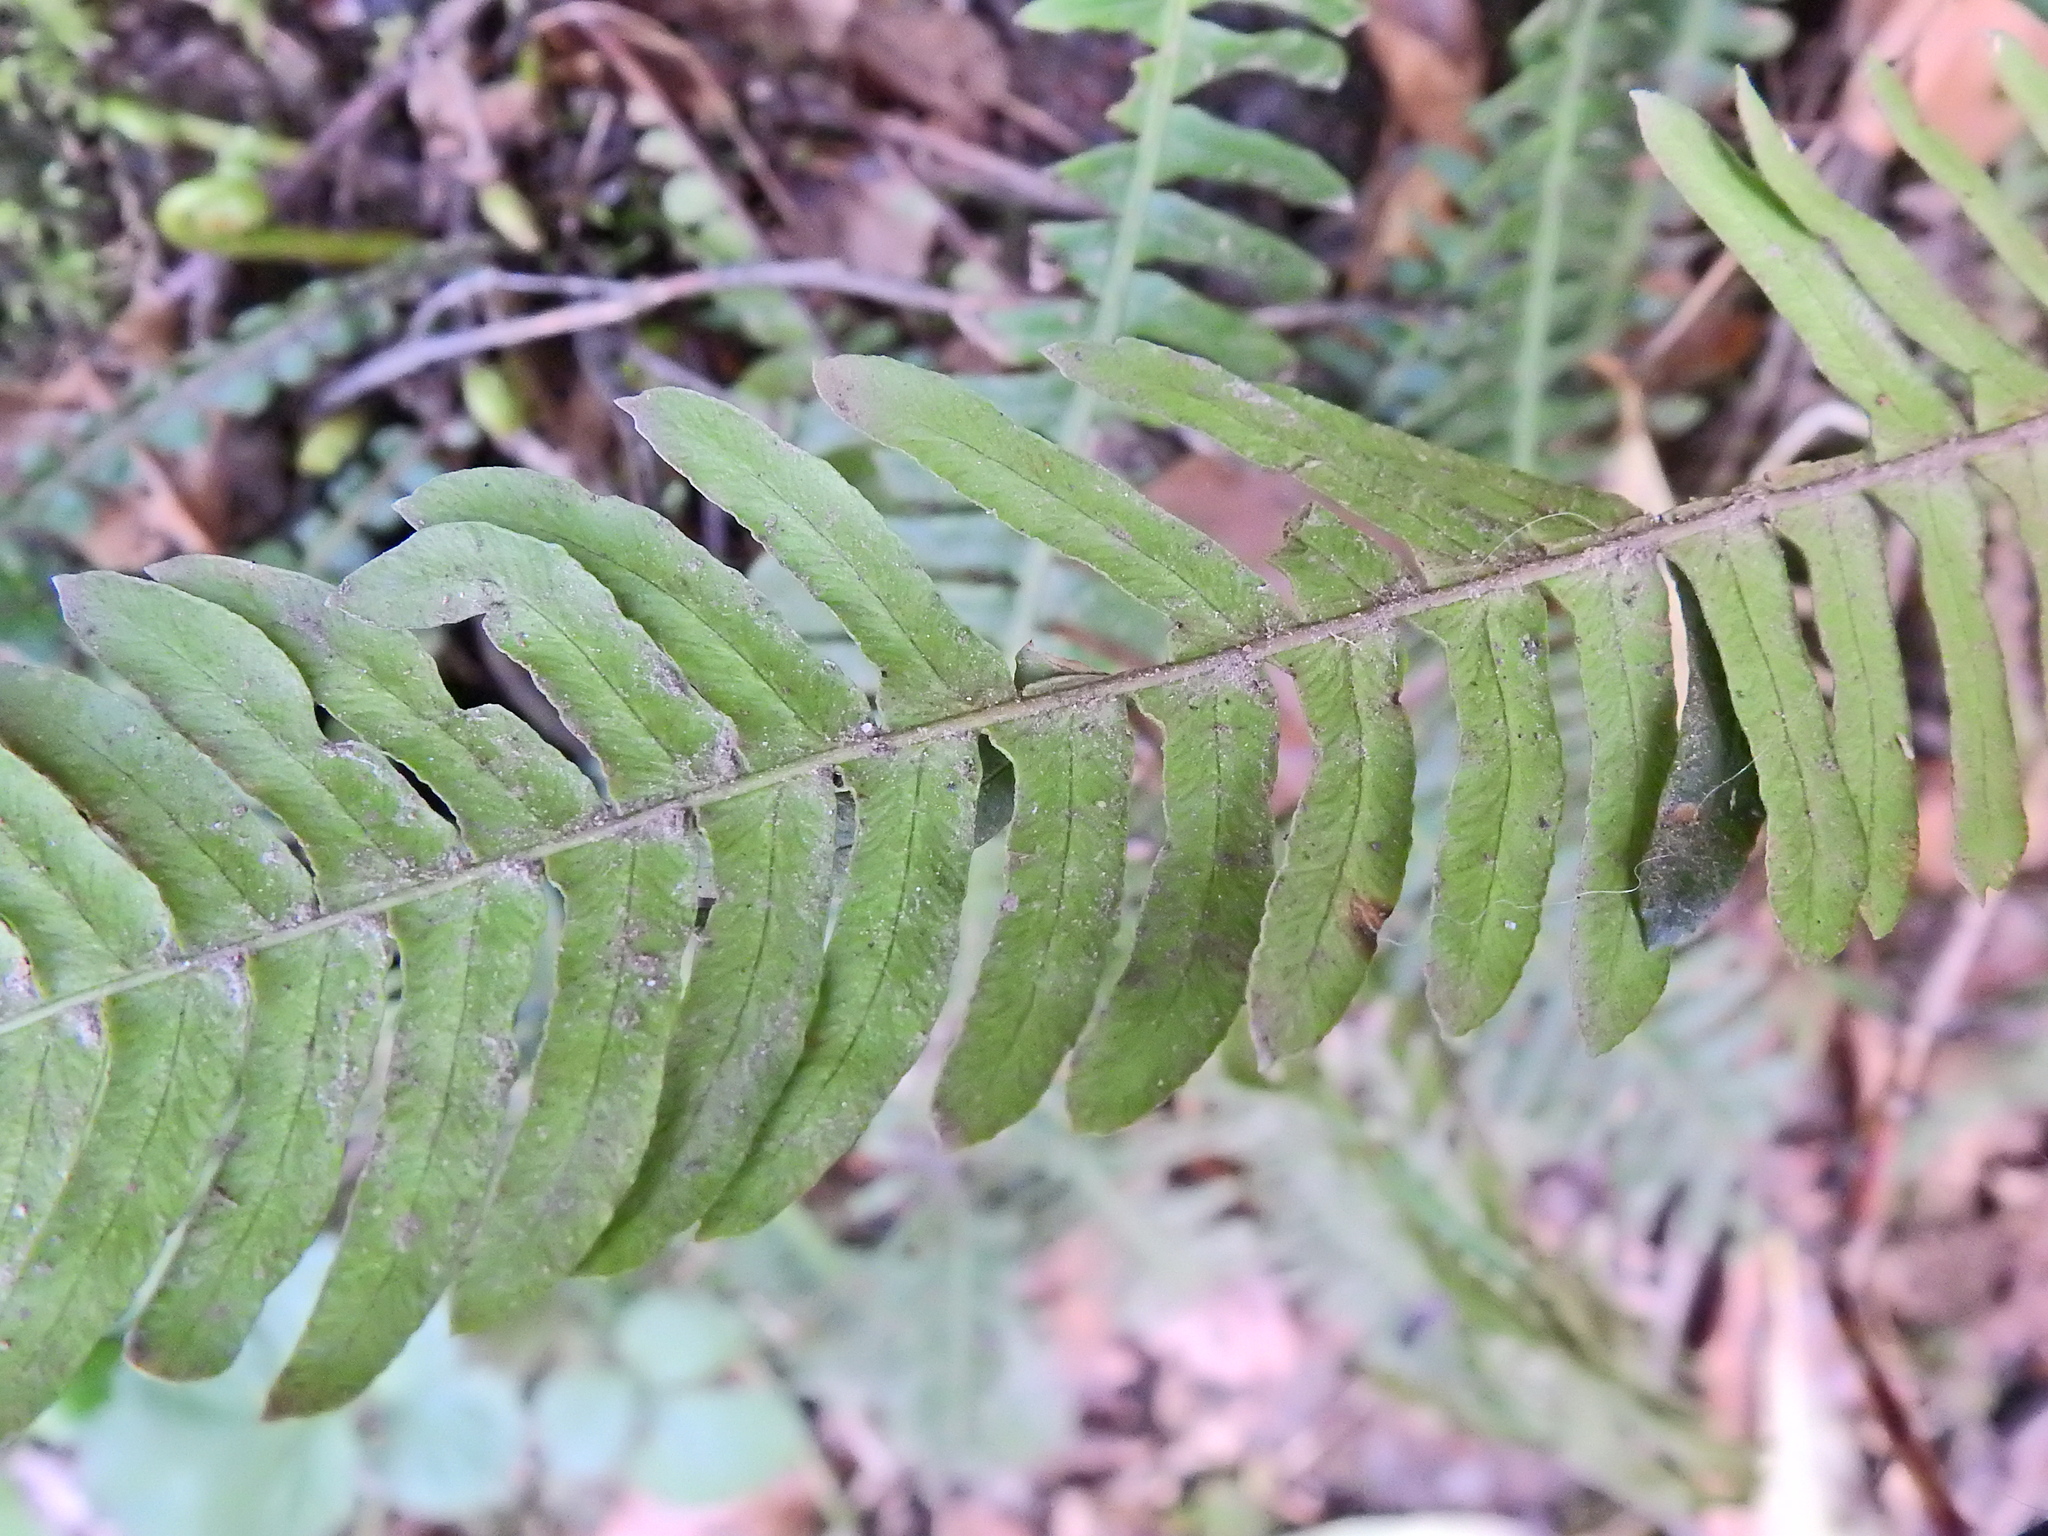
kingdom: Plantae
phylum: Tracheophyta
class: Polypodiopsida
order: Polypodiales
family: Blechnaceae
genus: Struthiopteris
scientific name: Struthiopteris spicant
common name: Deer fern
